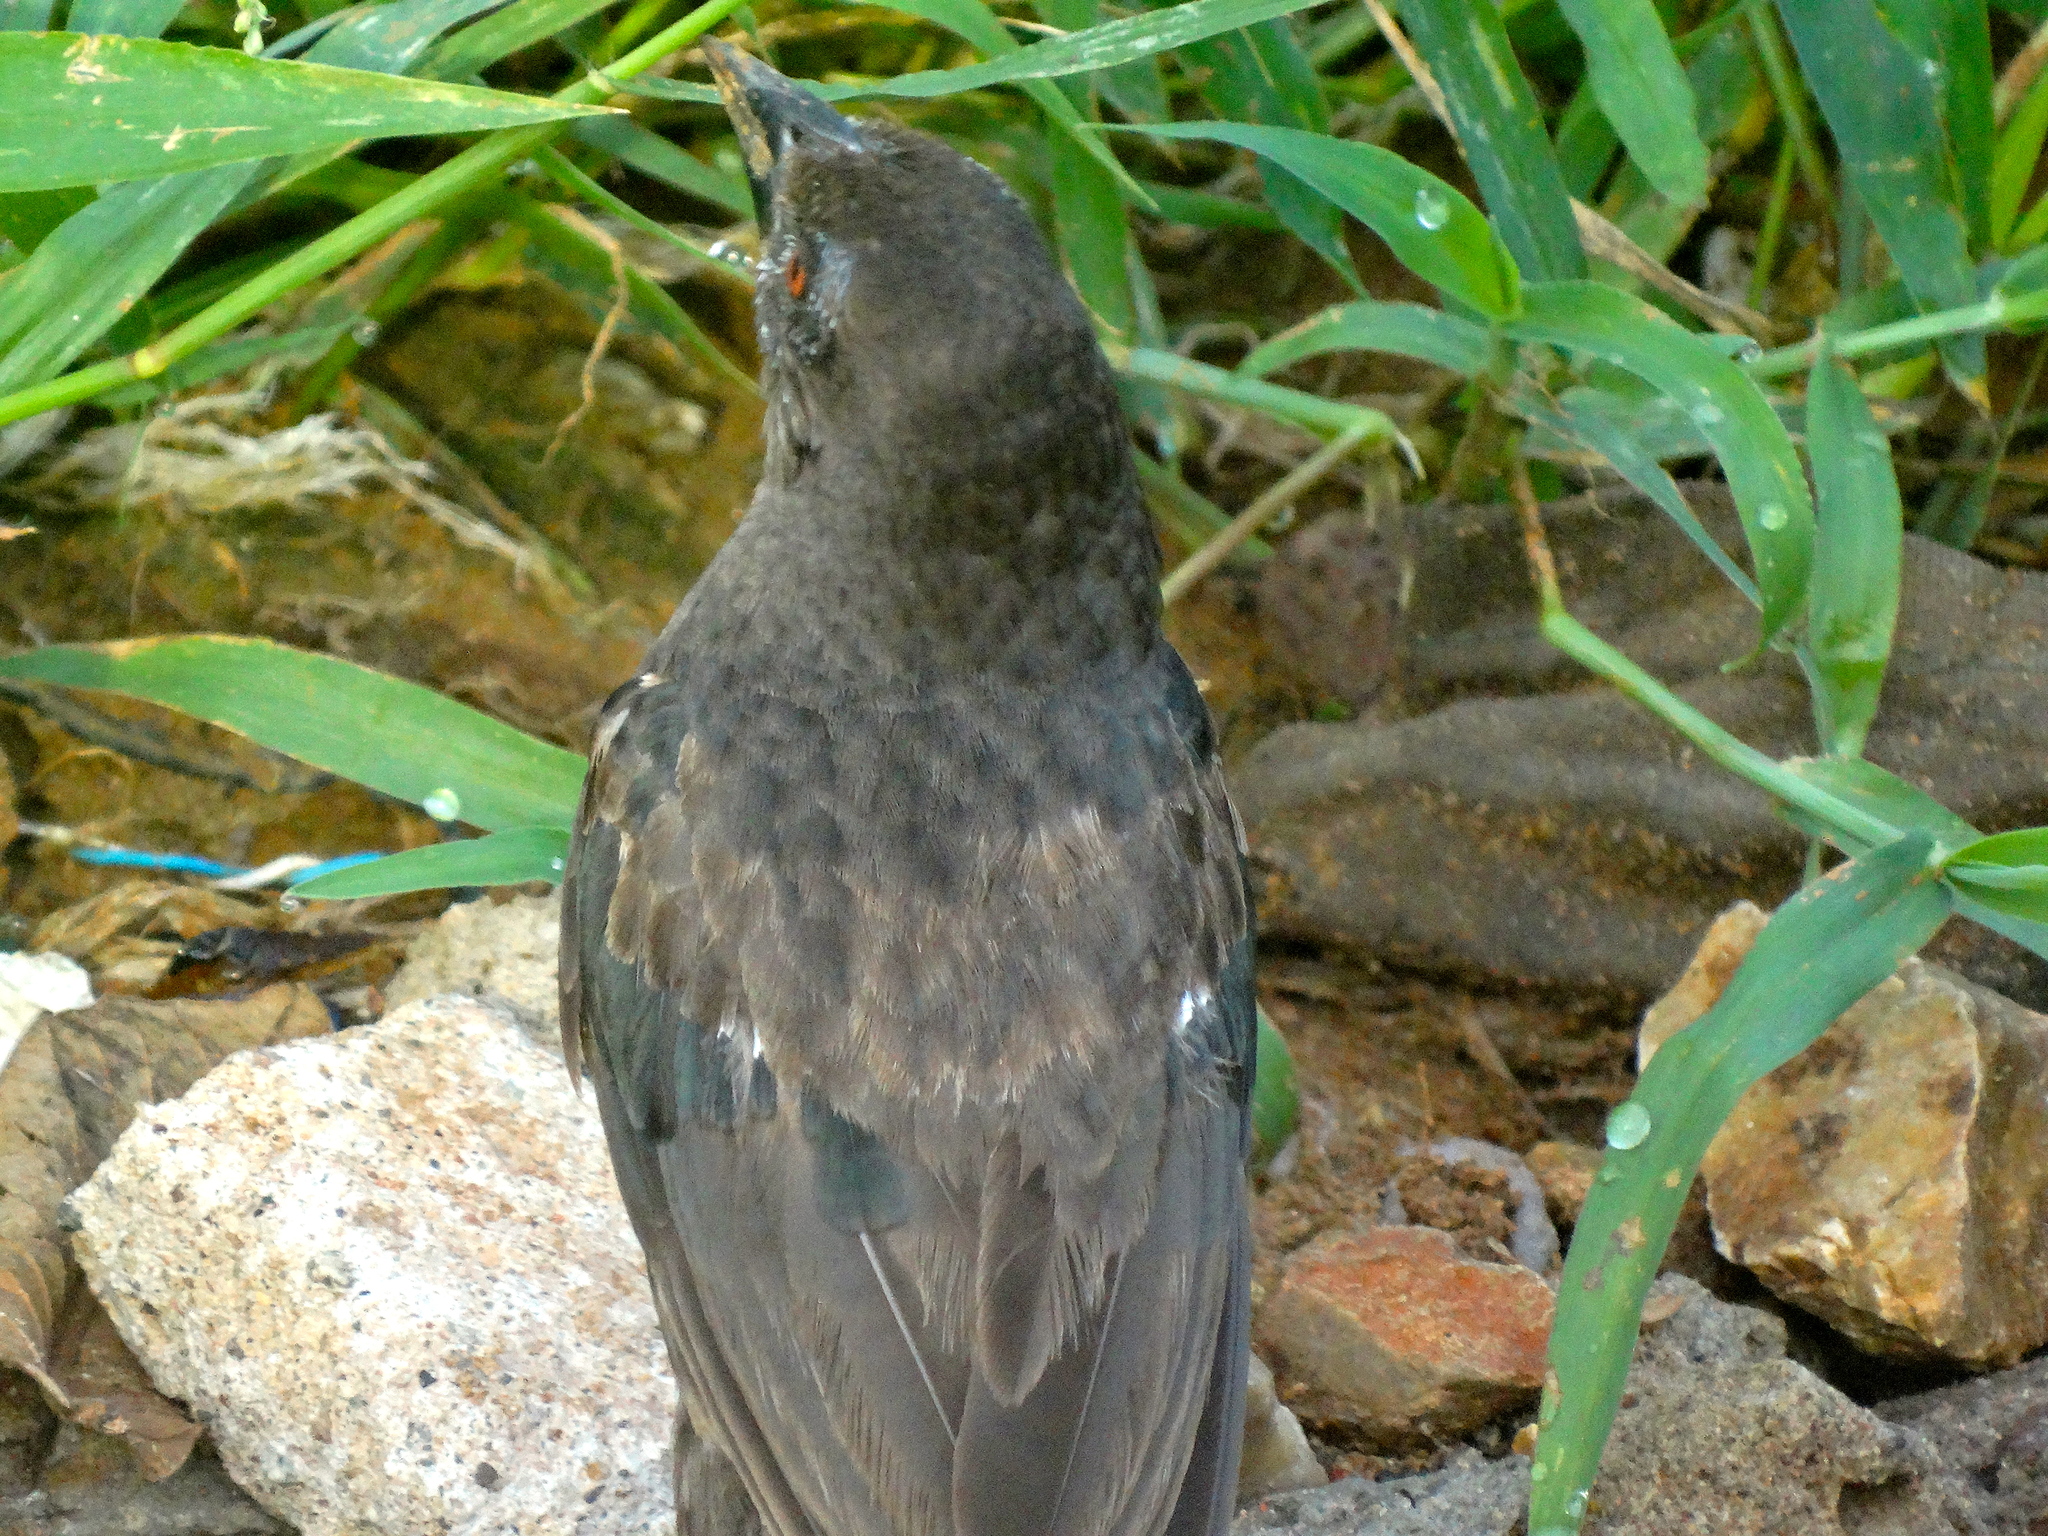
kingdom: Animalia
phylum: Chordata
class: Aves
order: Passeriformes
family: Icteridae
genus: Molothrus
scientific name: Molothrus aeneus
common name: Bronzed cowbird
